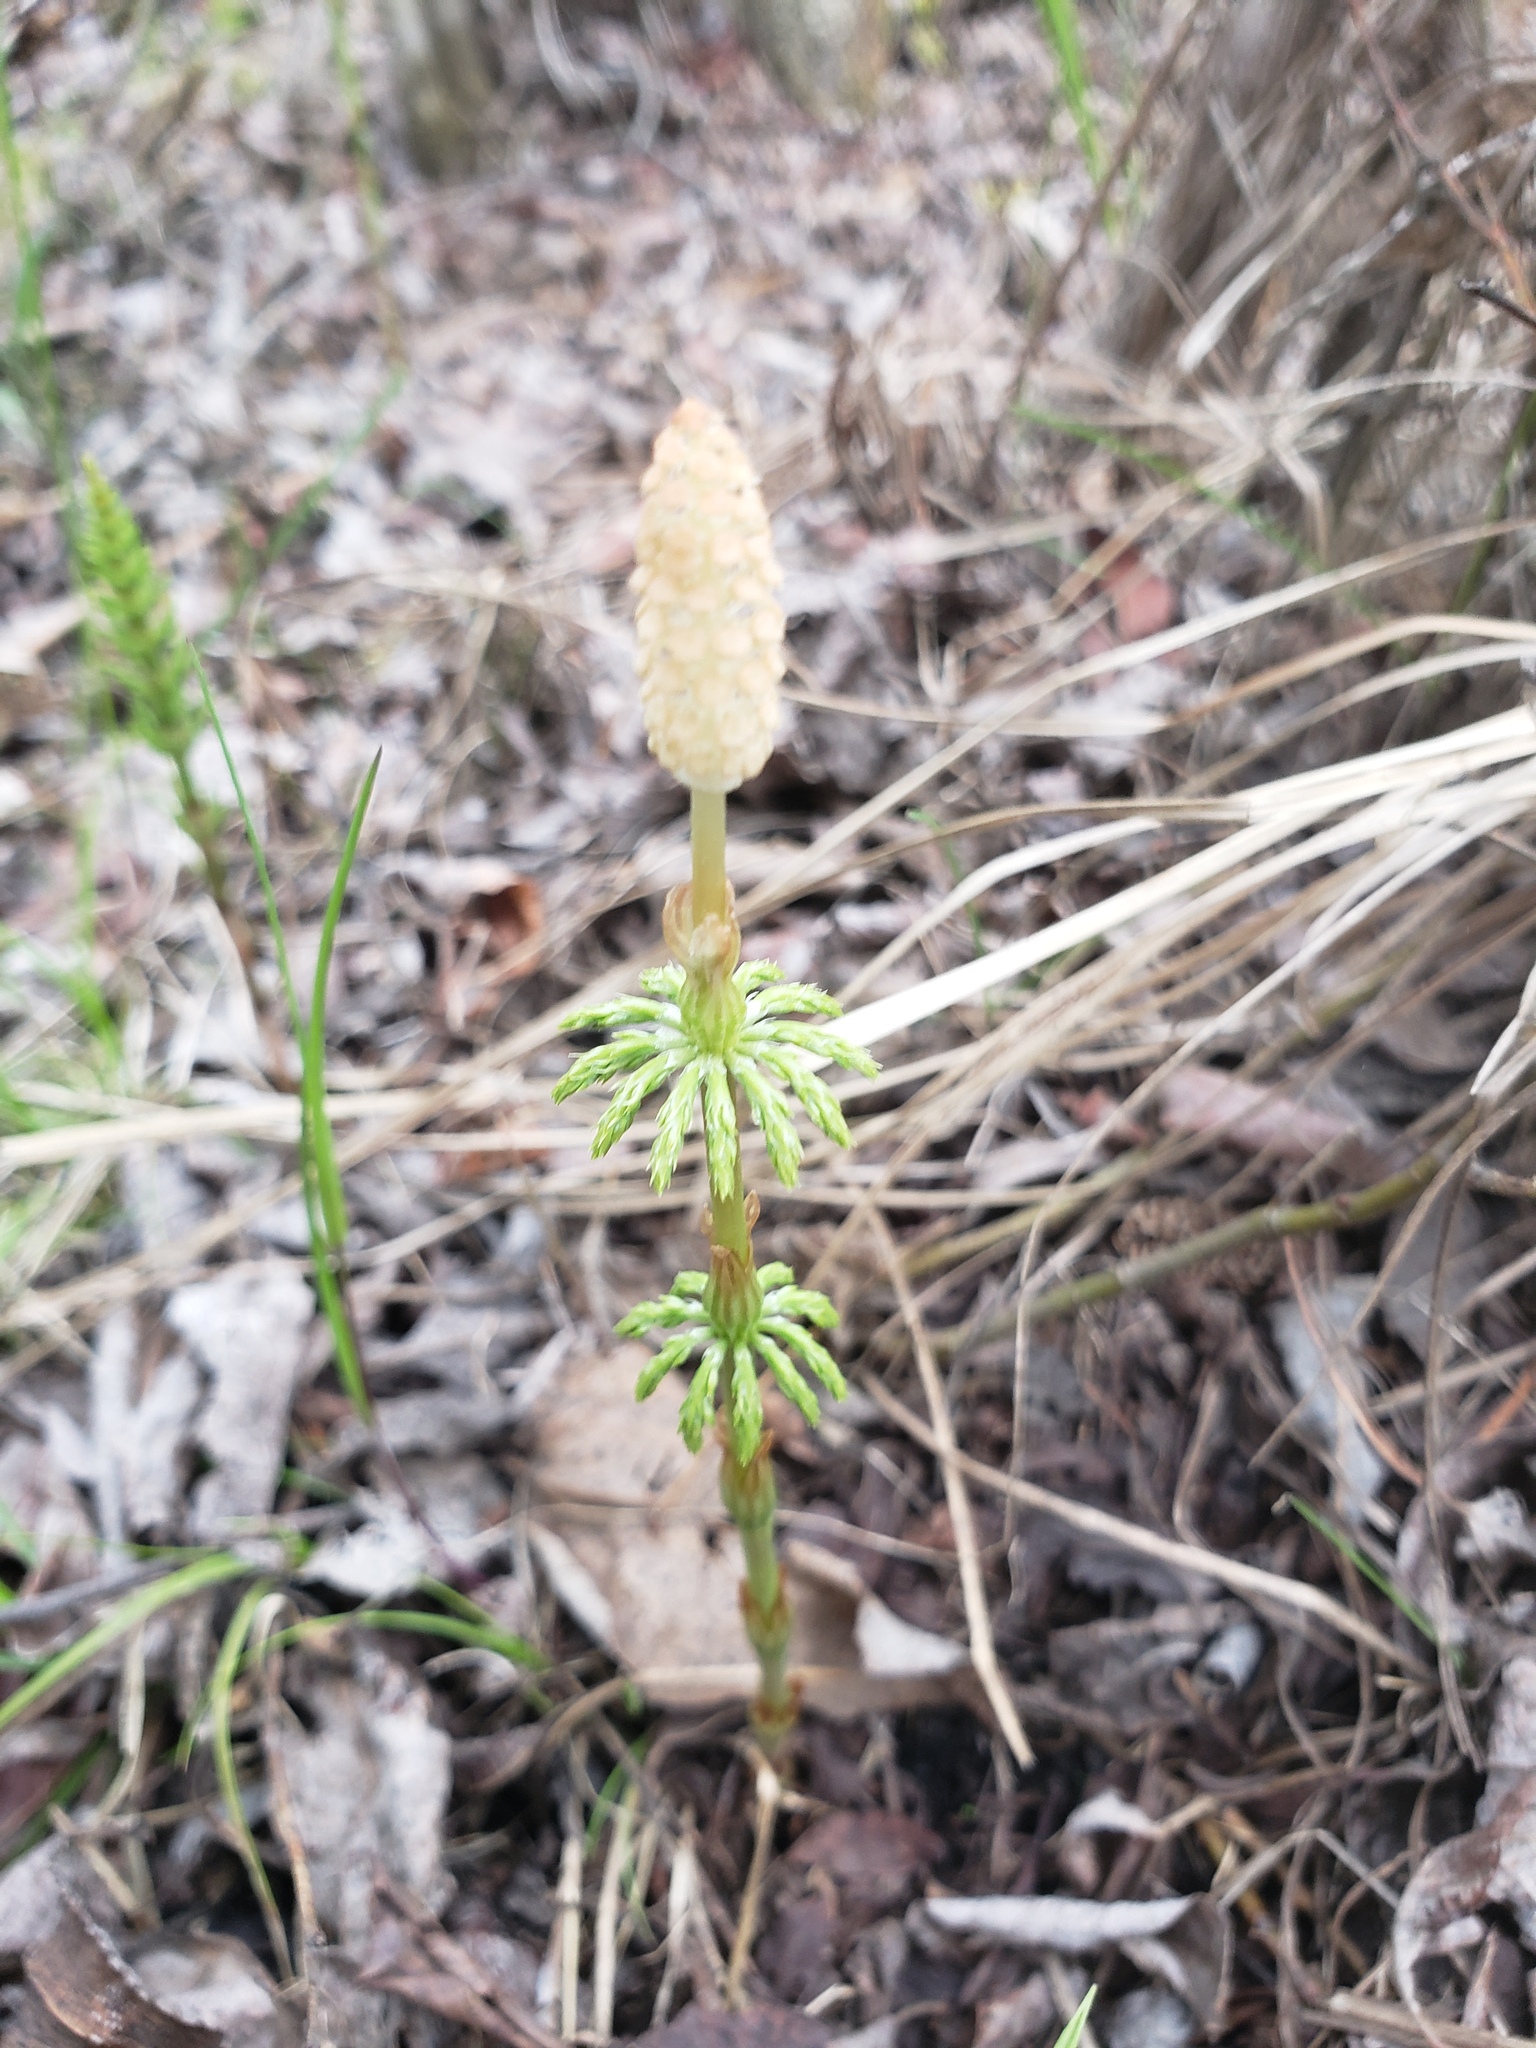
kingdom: Plantae
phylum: Tracheophyta
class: Polypodiopsida
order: Equisetales
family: Equisetaceae
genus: Equisetum
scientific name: Equisetum sylvaticum
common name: Wood horsetail
